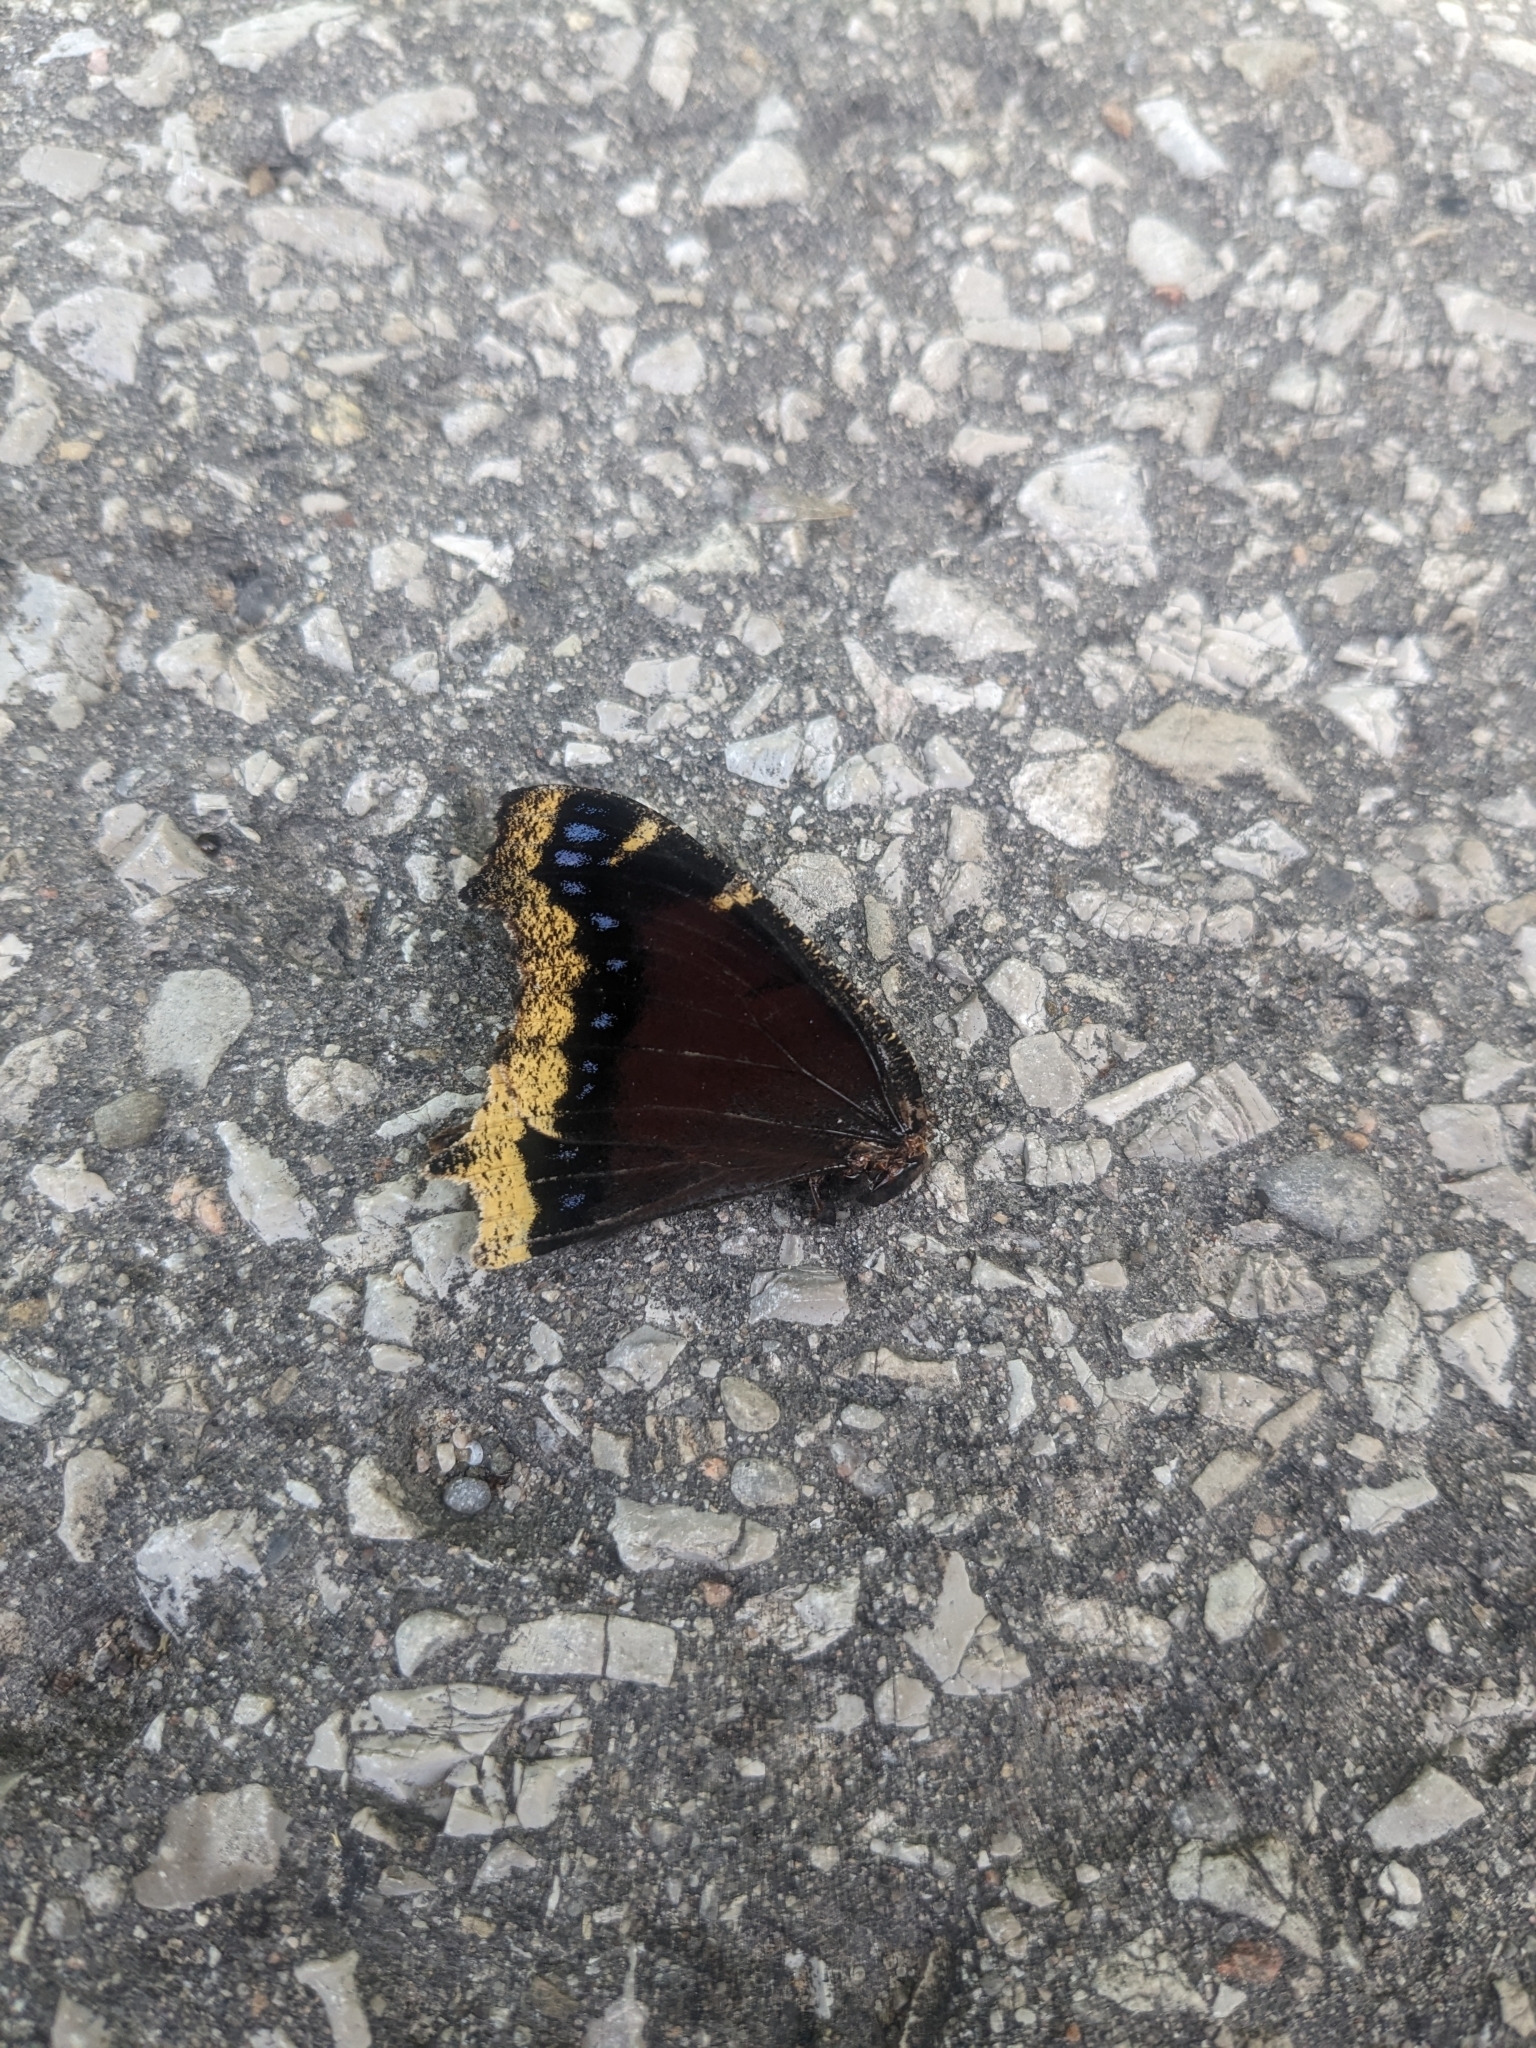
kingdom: Animalia
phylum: Arthropoda
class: Insecta
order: Lepidoptera
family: Nymphalidae
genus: Nymphalis
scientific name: Nymphalis antiopa
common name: Camberwell beauty
